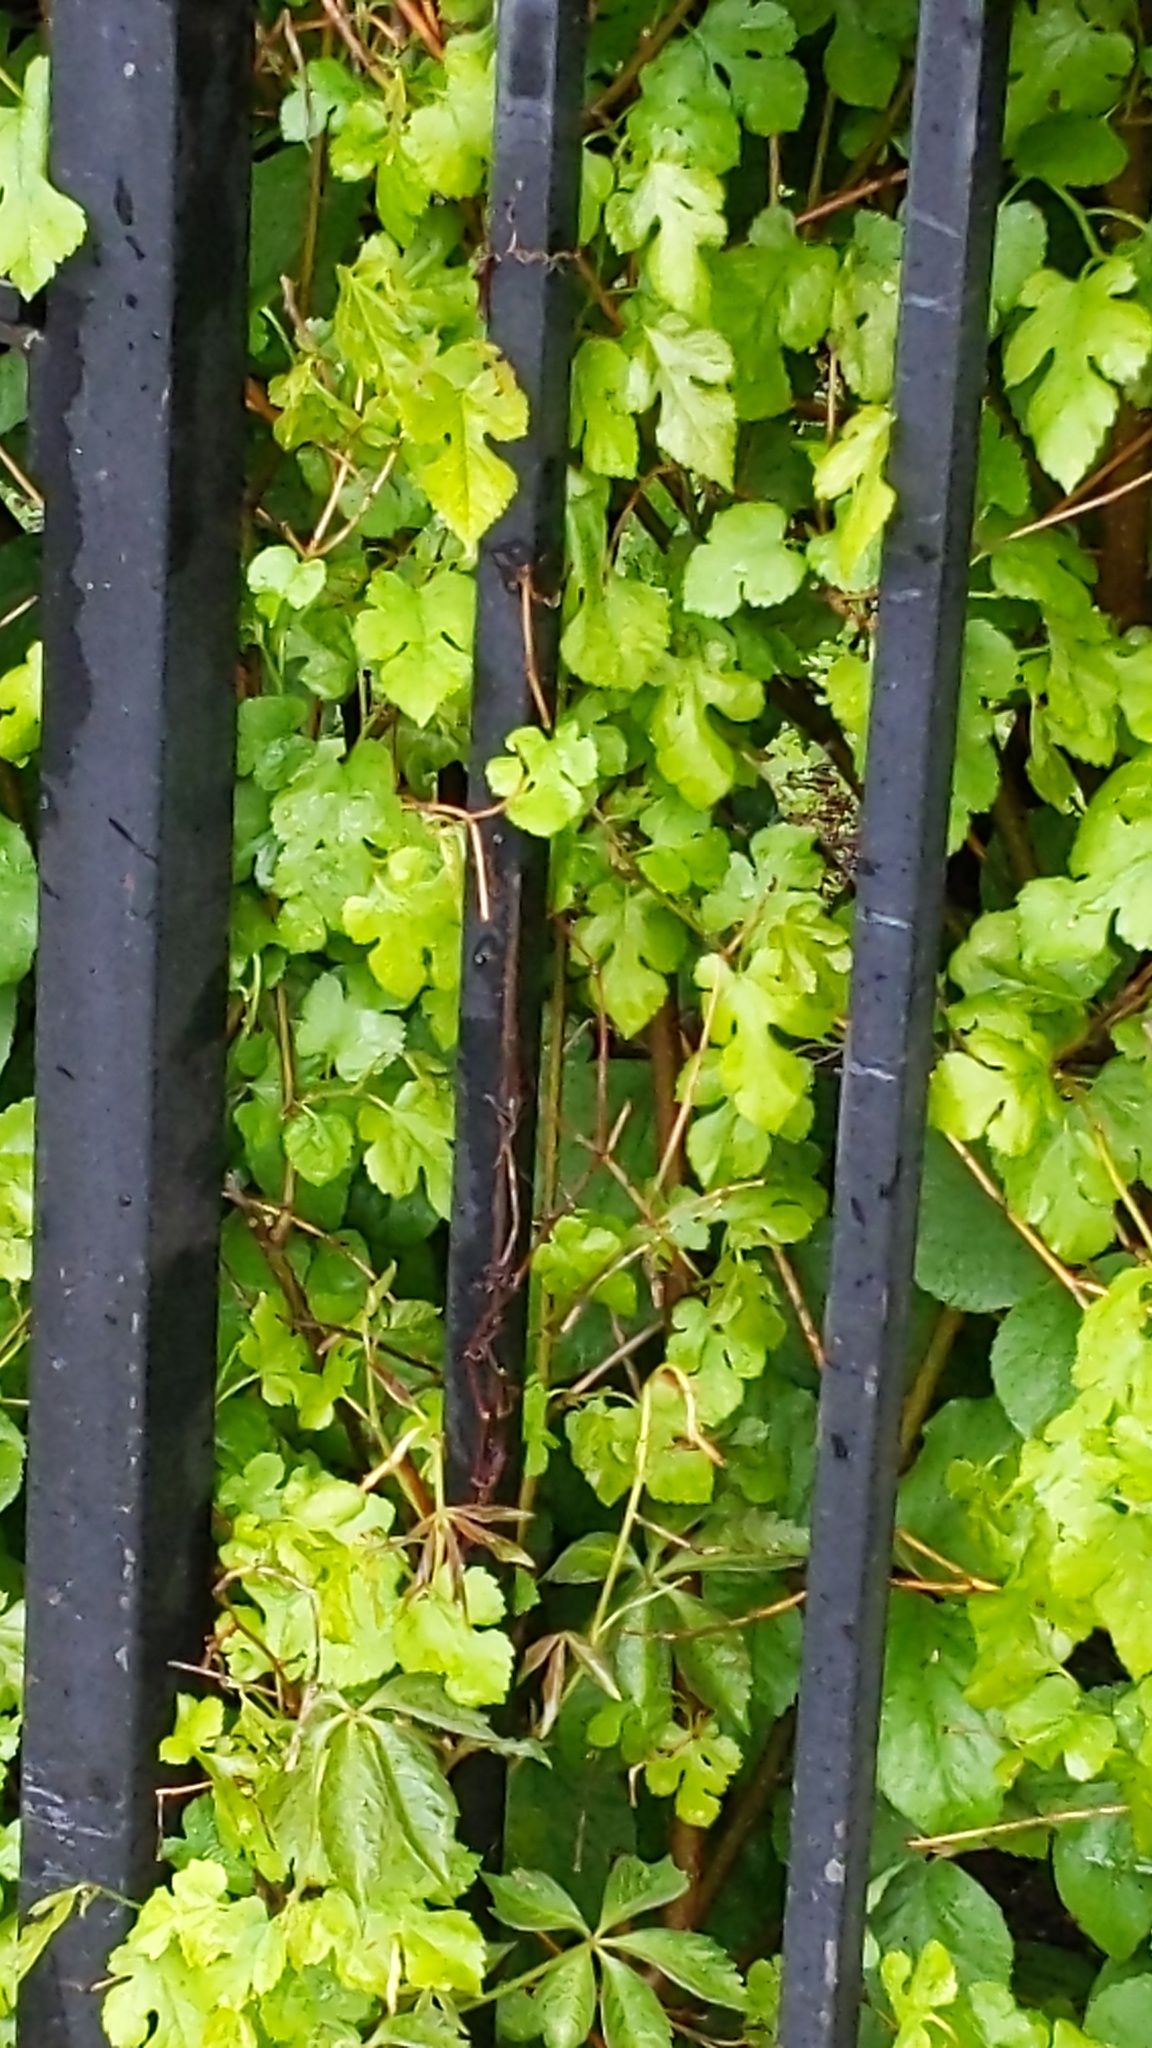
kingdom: Plantae
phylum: Tracheophyta
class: Magnoliopsida
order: Rosales
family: Moraceae
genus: Morus
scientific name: Morus alba
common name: White mulberry
